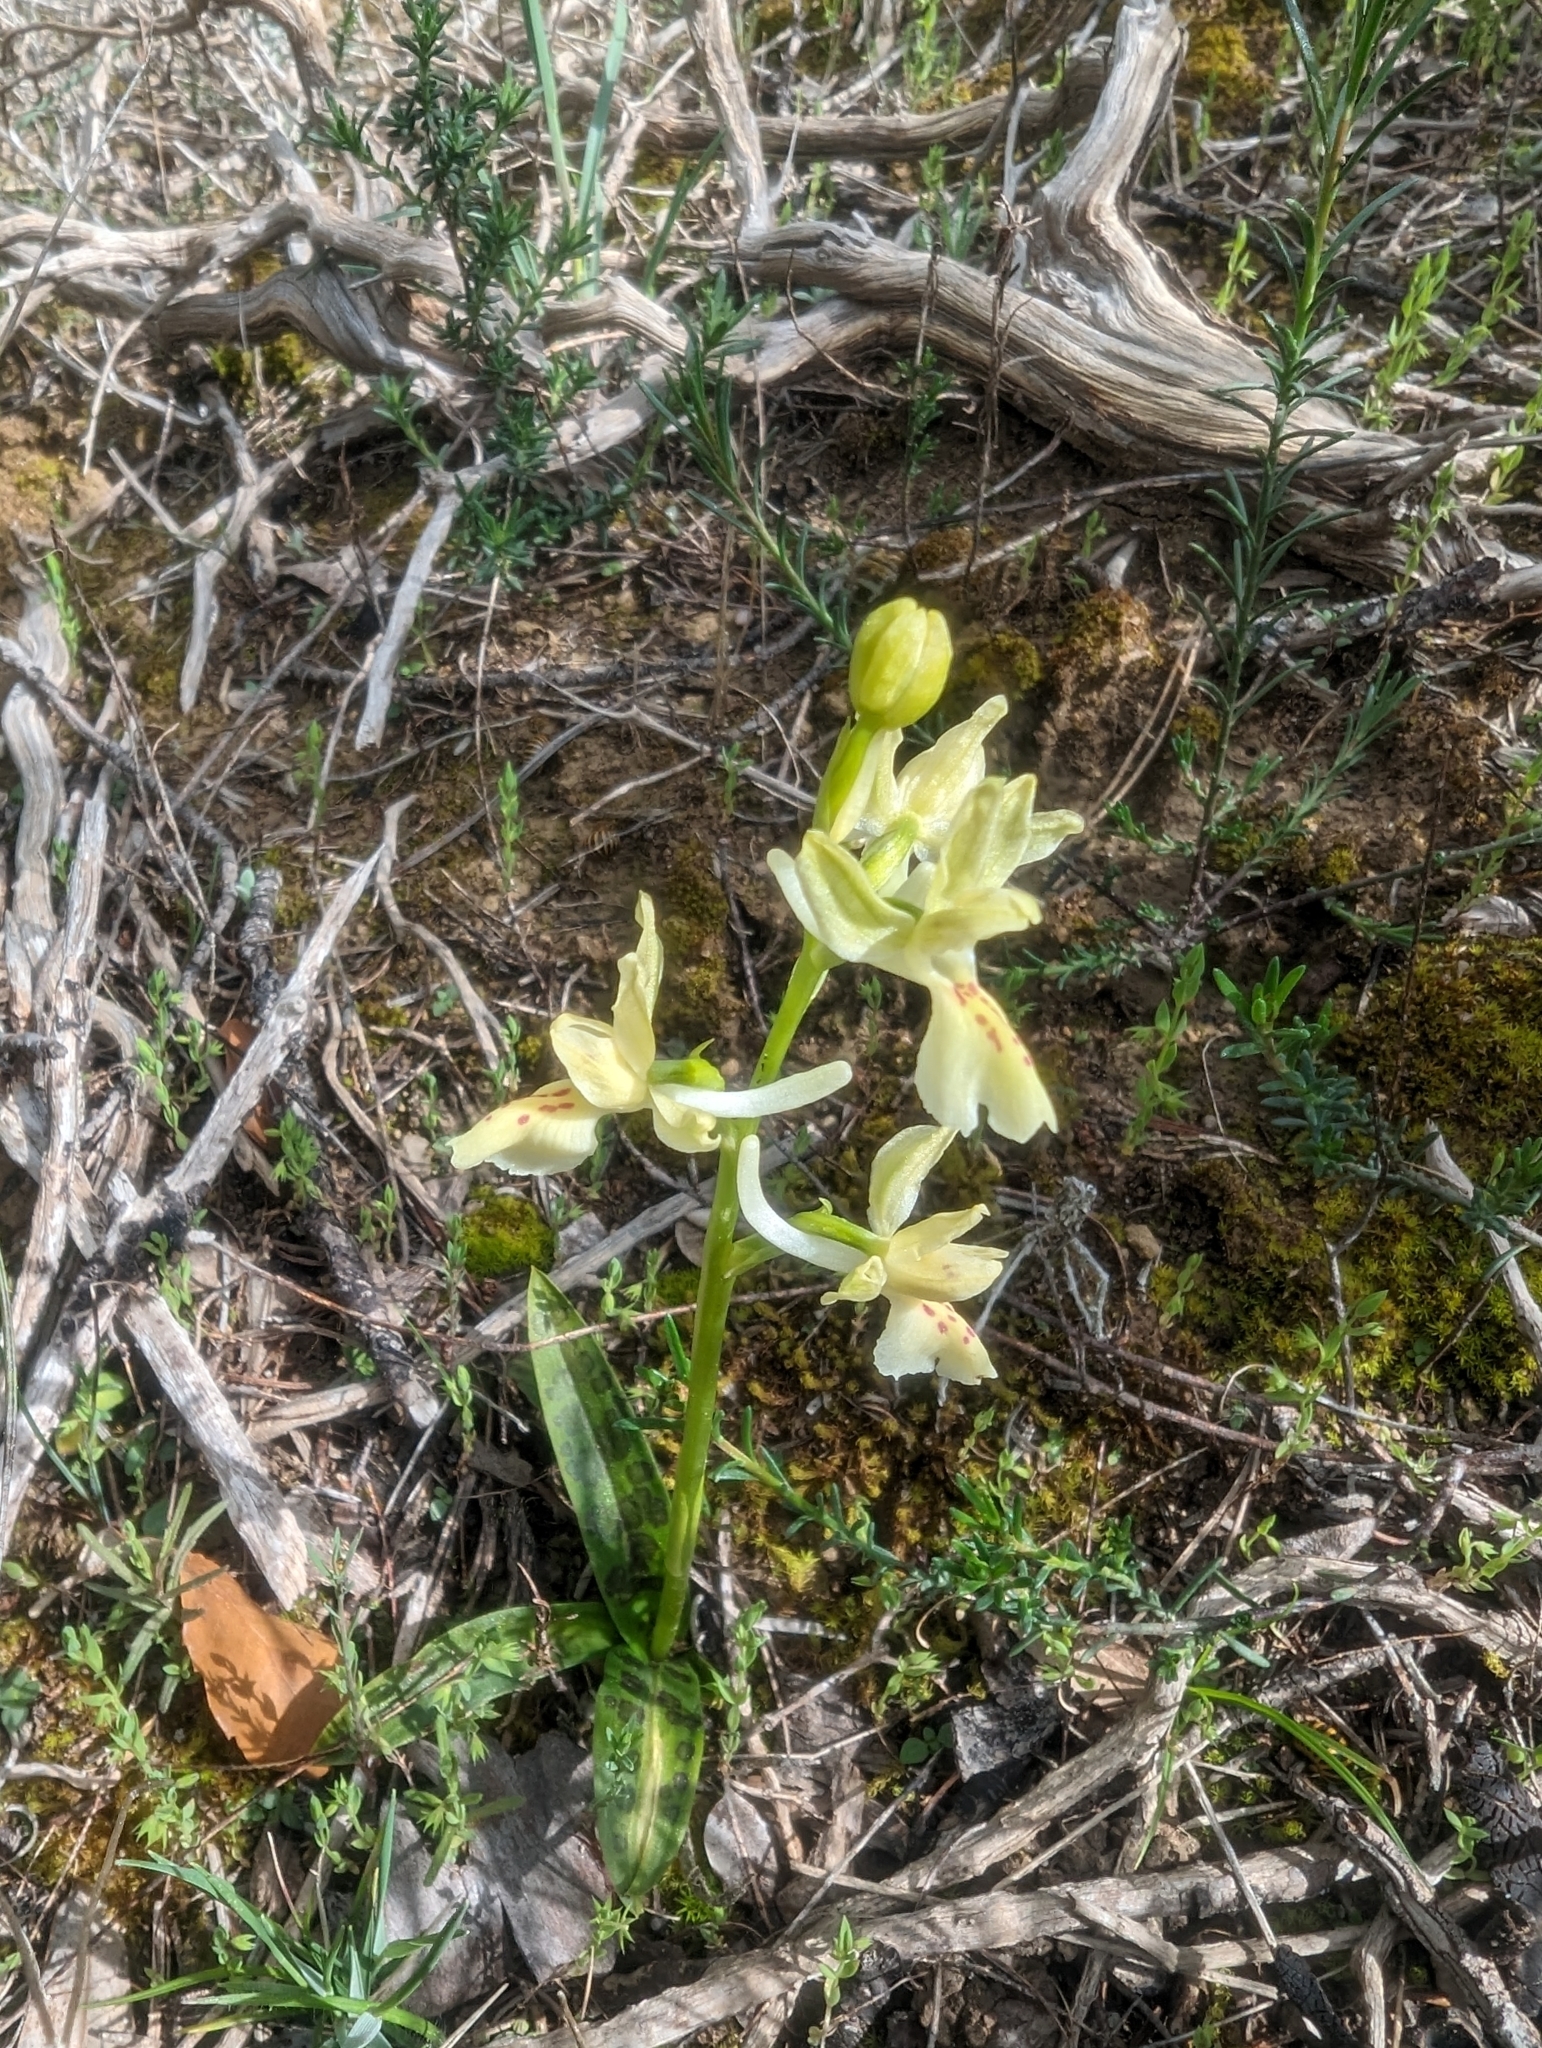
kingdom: Plantae
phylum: Tracheophyta
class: Liliopsida
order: Asparagales
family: Orchidaceae
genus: Orchis
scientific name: Orchis provincialis
